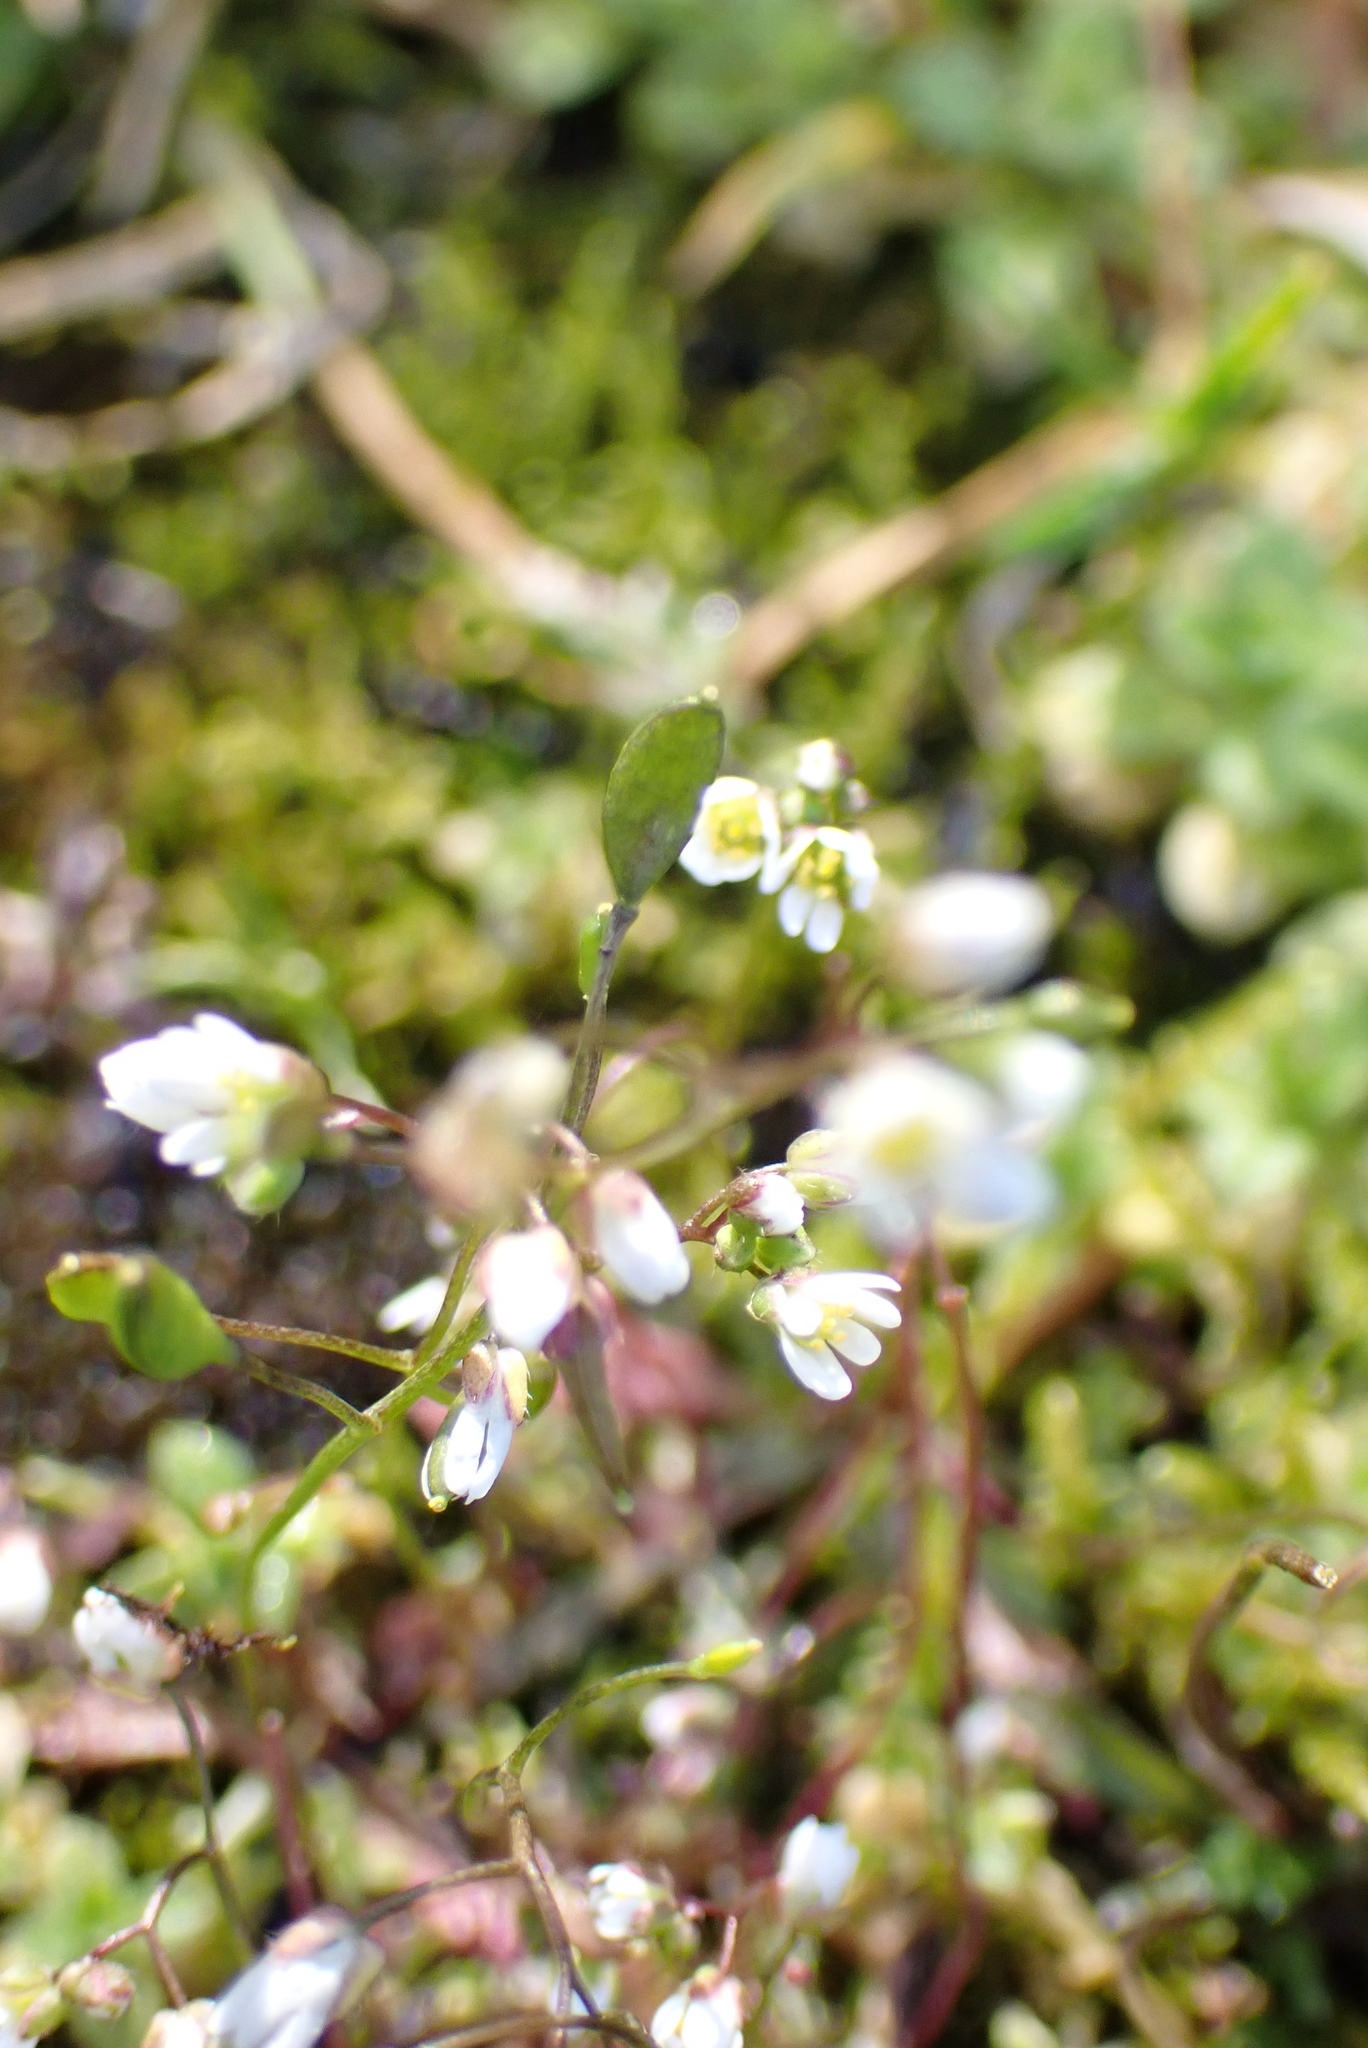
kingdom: Plantae
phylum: Tracheophyta
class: Magnoliopsida
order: Brassicales
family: Brassicaceae
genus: Draba
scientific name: Draba verna
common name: Spring draba
